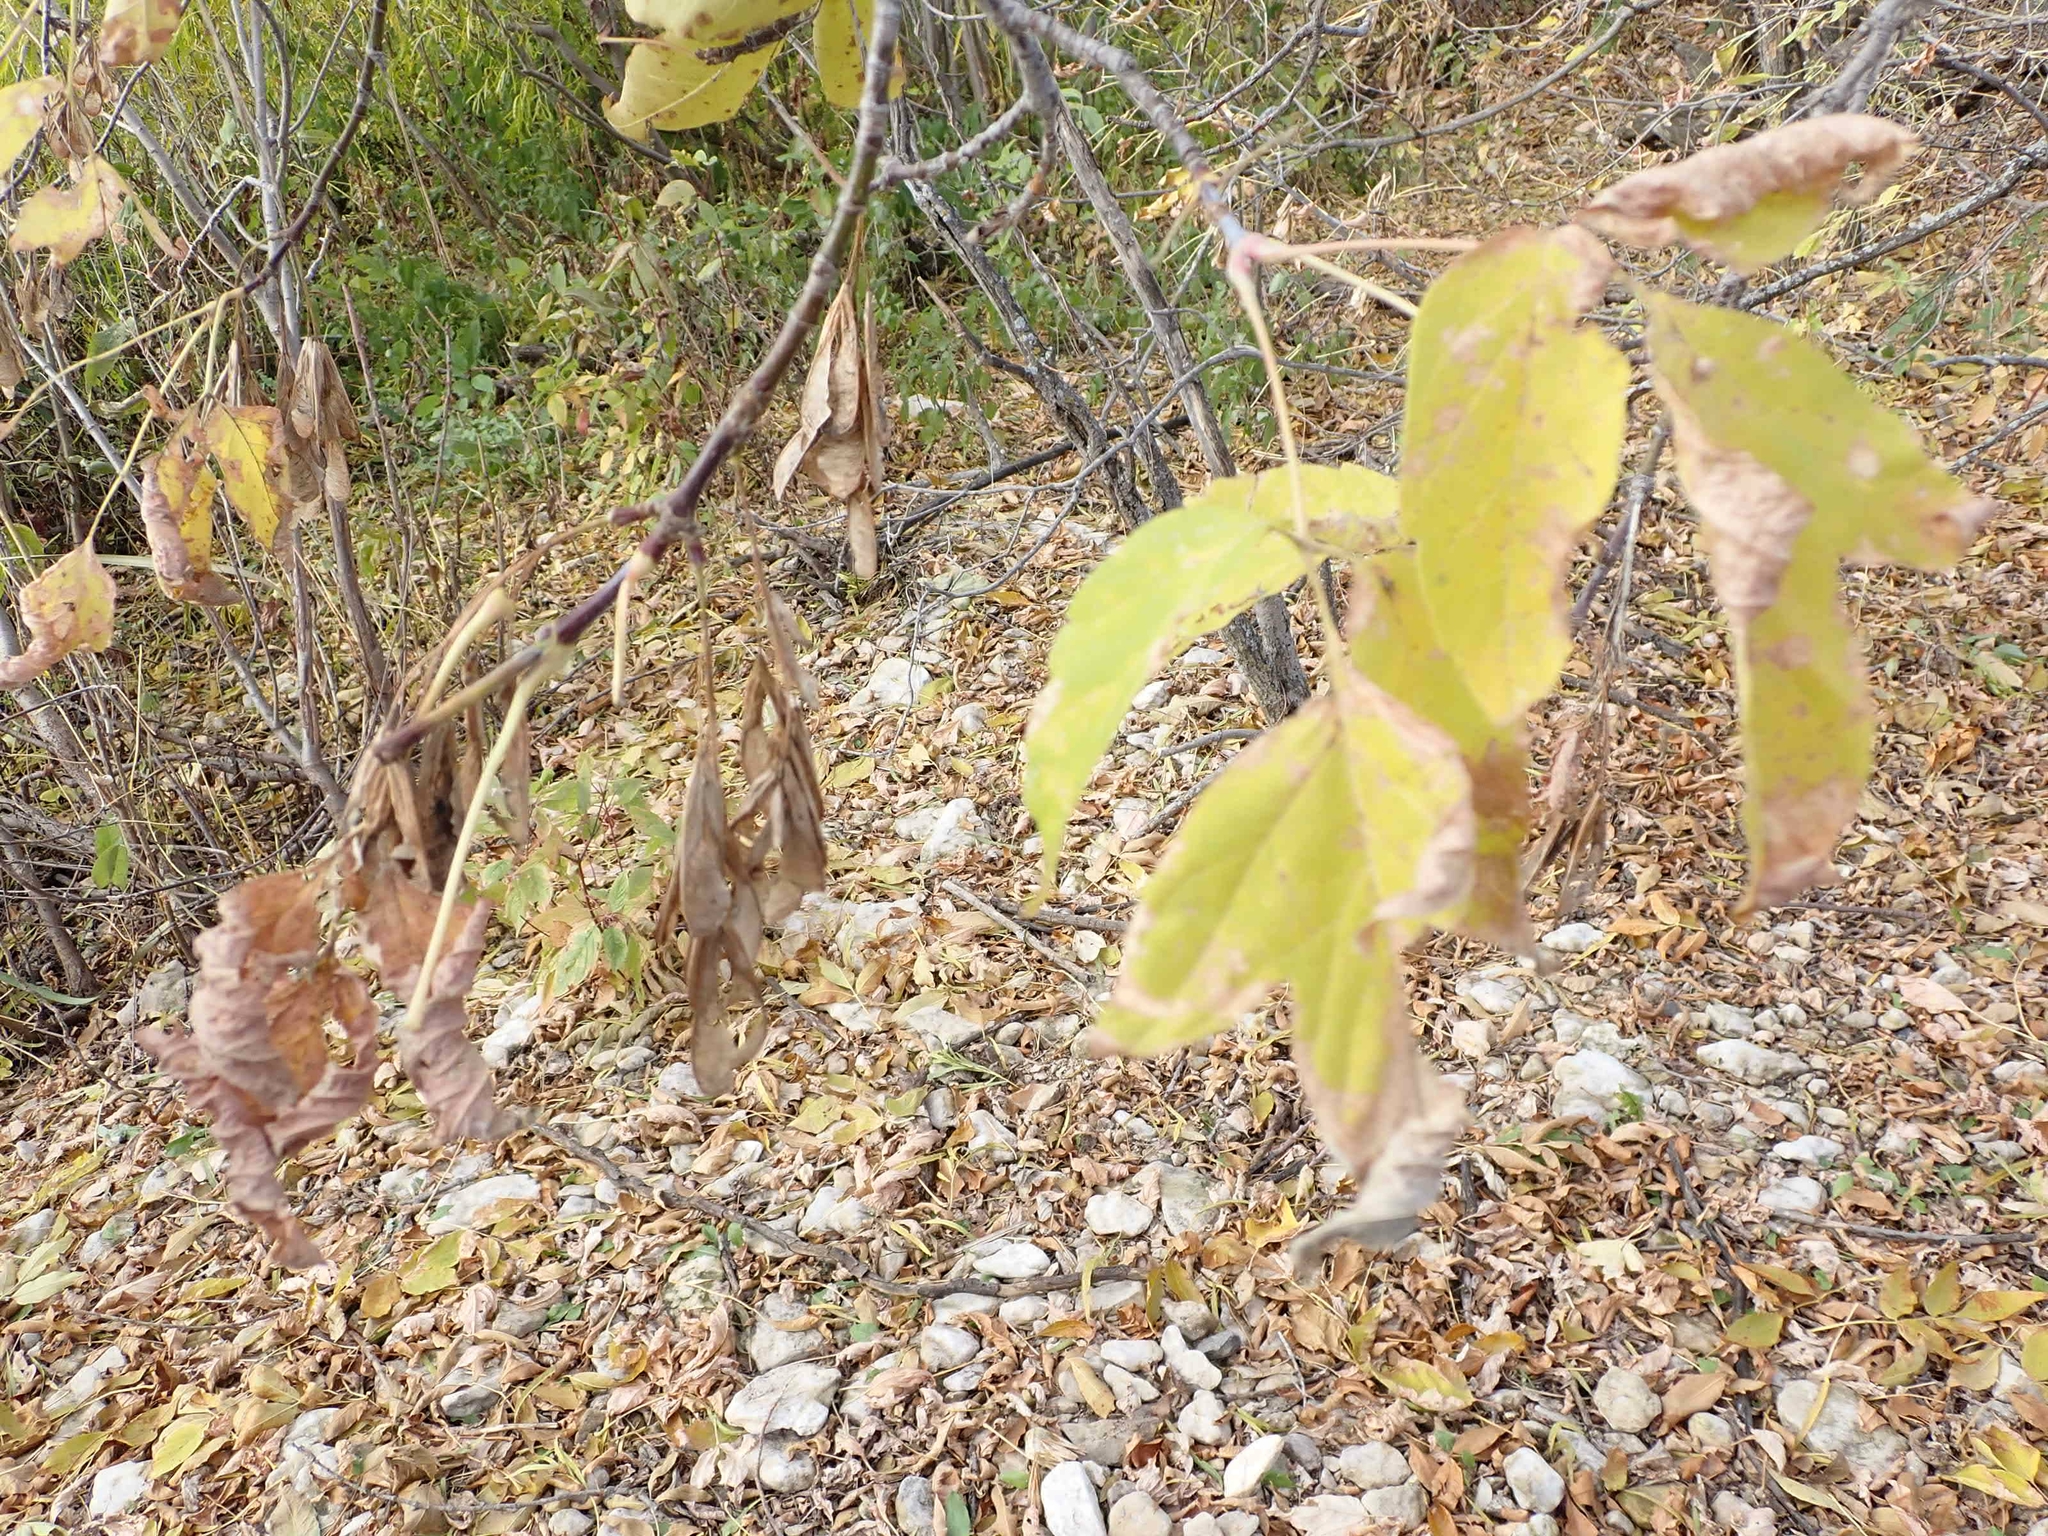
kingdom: Plantae
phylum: Tracheophyta
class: Magnoliopsida
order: Sapindales
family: Sapindaceae
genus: Acer
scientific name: Acer negundo
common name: Ashleaf maple
